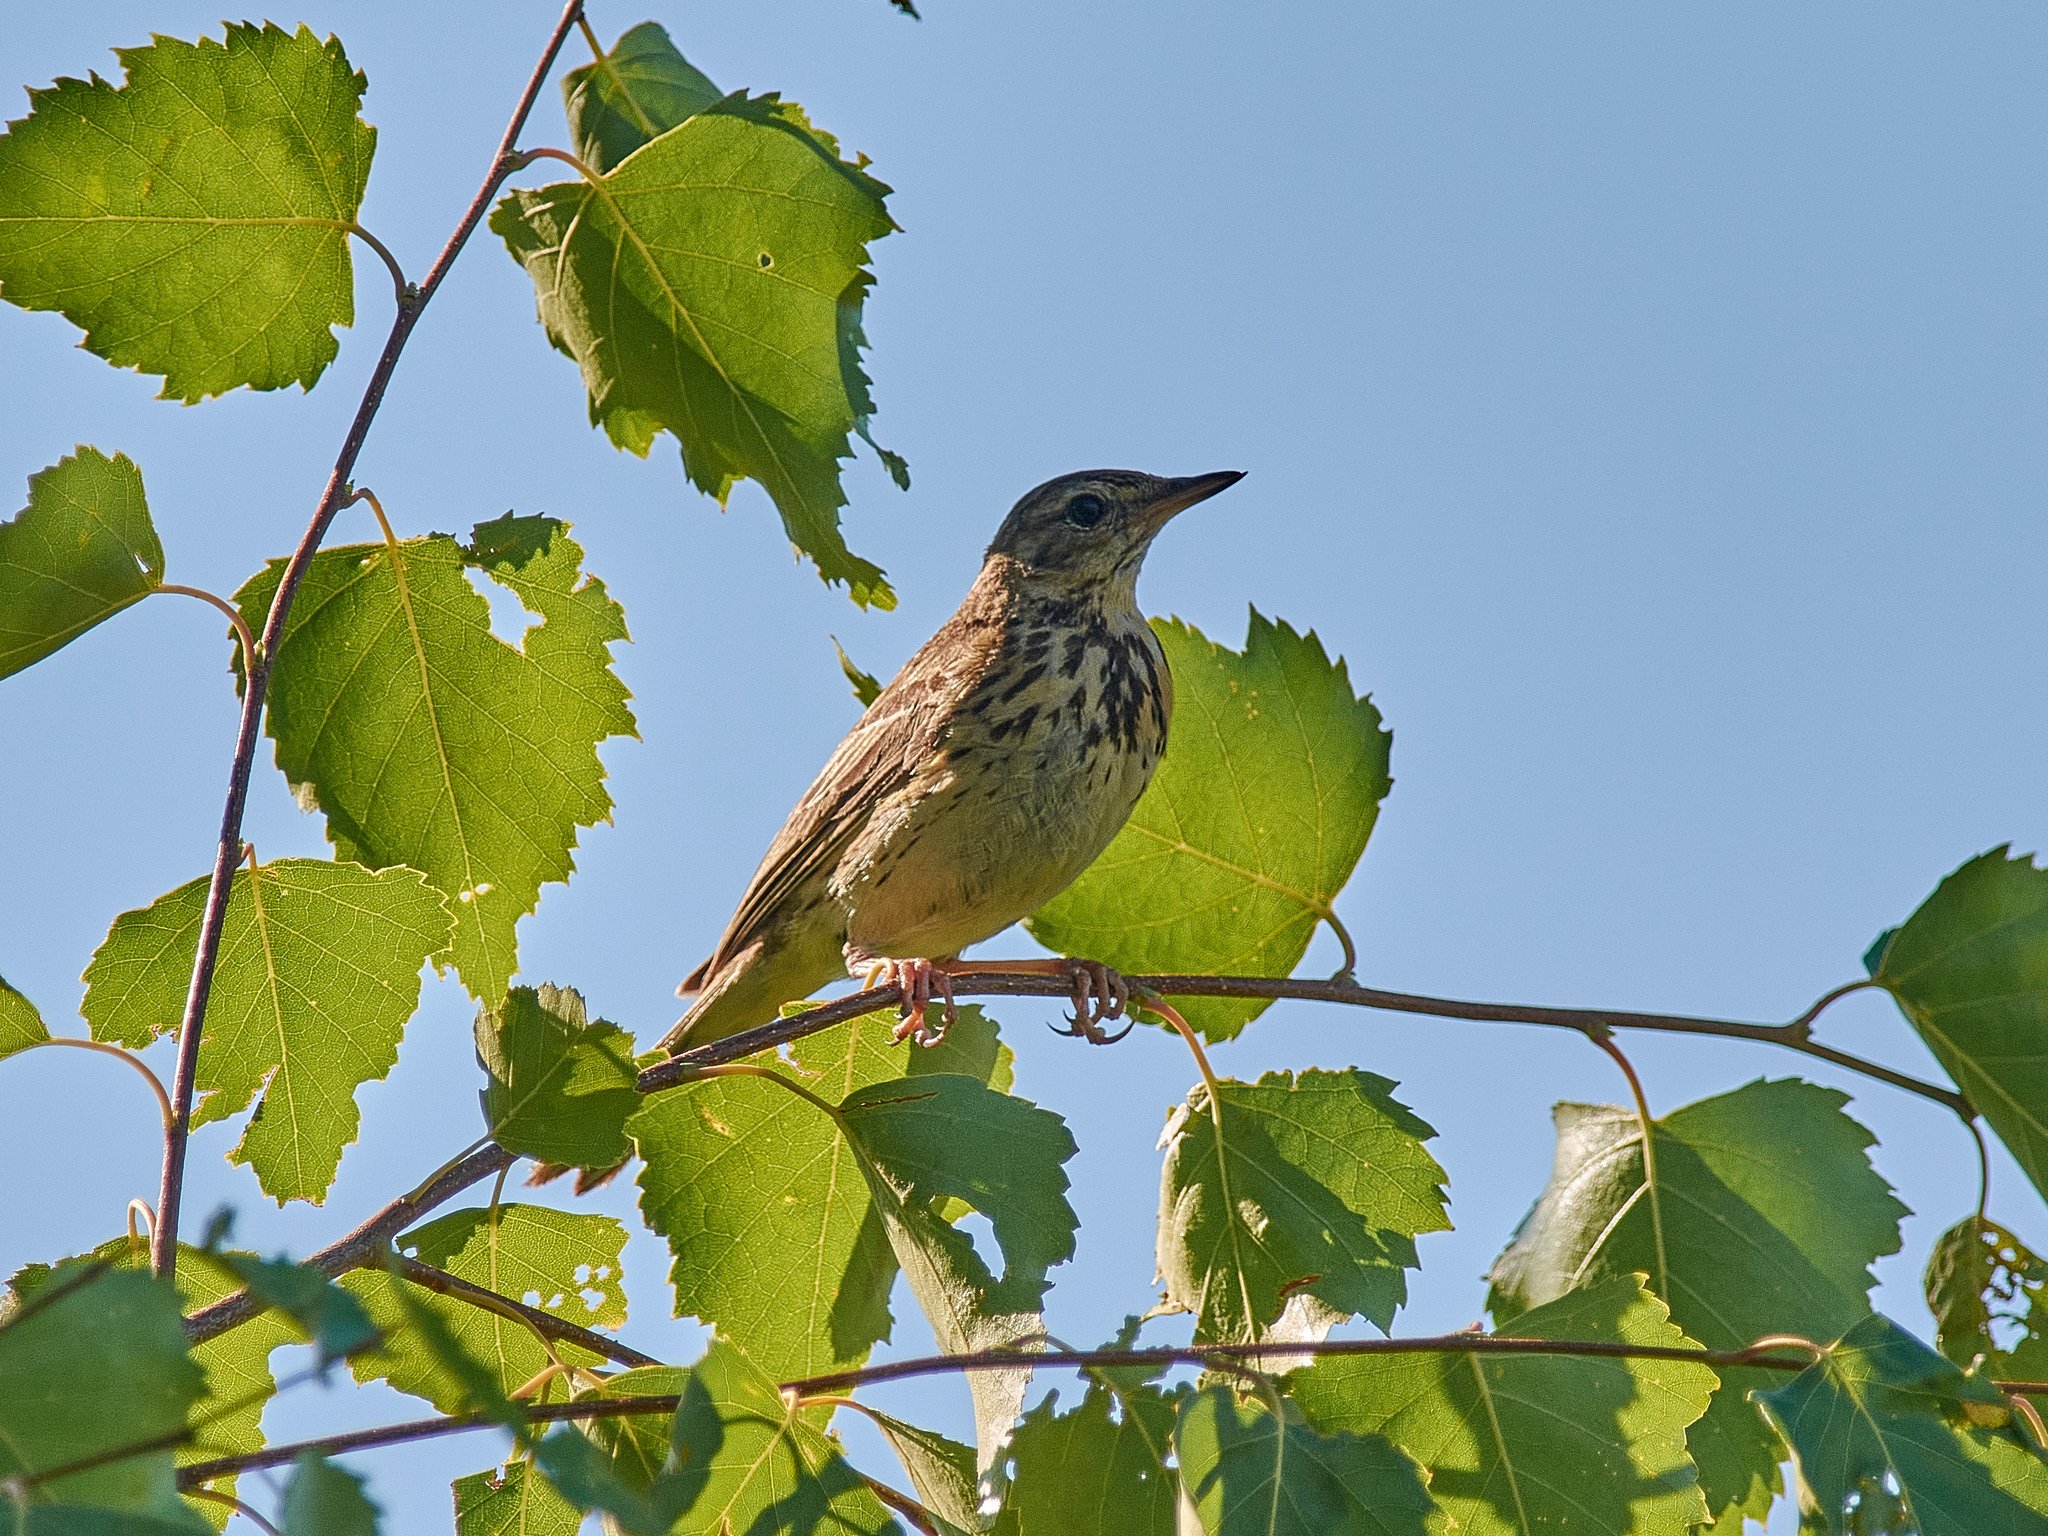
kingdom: Animalia
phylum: Chordata
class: Aves
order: Passeriformes
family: Motacillidae
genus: Anthus
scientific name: Anthus trivialis
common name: Tree pipit
